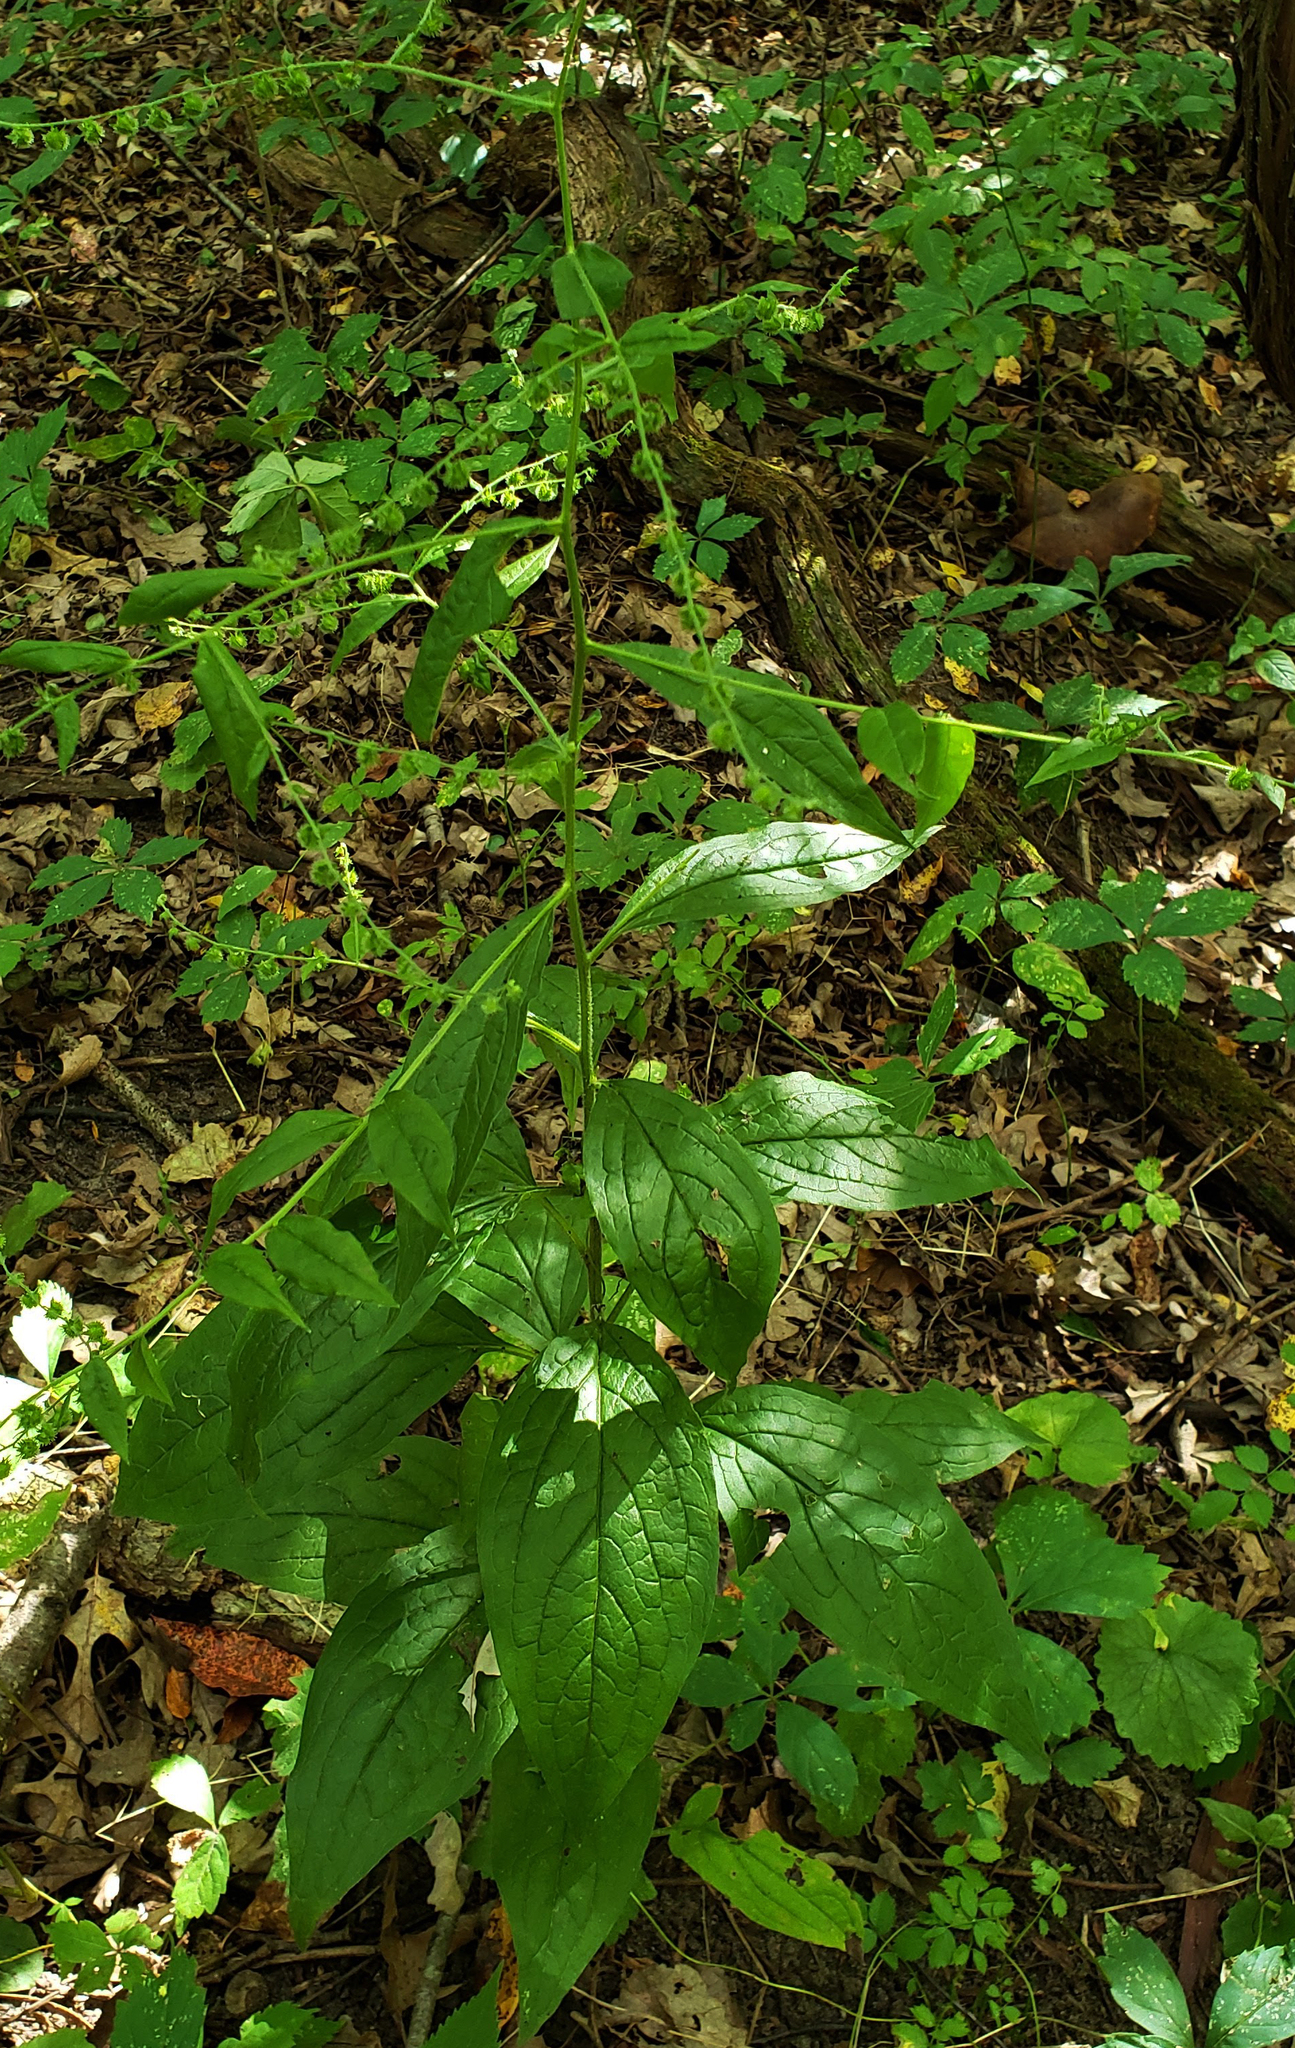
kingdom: Plantae
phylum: Tracheophyta
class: Magnoliopsida
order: Boraginales
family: Boraginaceae
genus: Hackelia
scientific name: Hackelia virginiana
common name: Beggar's-lice
